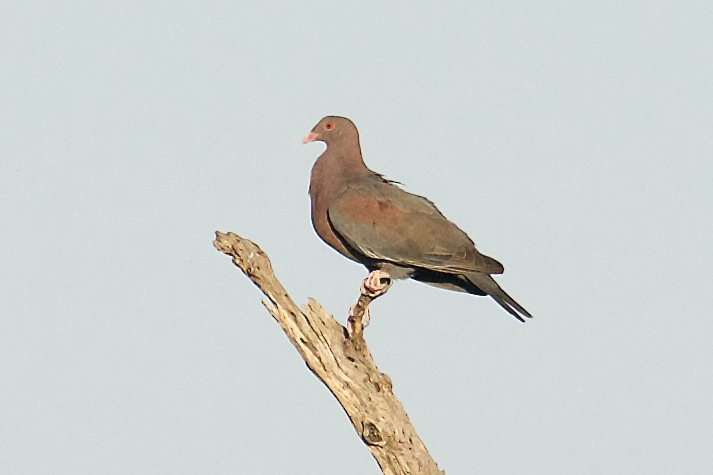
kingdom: Animalia
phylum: Chordata
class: Aves
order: Columbiformes
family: Columbidae
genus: Patagioenas
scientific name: Patagioenas flavirostris
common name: Red-billed pigeon
